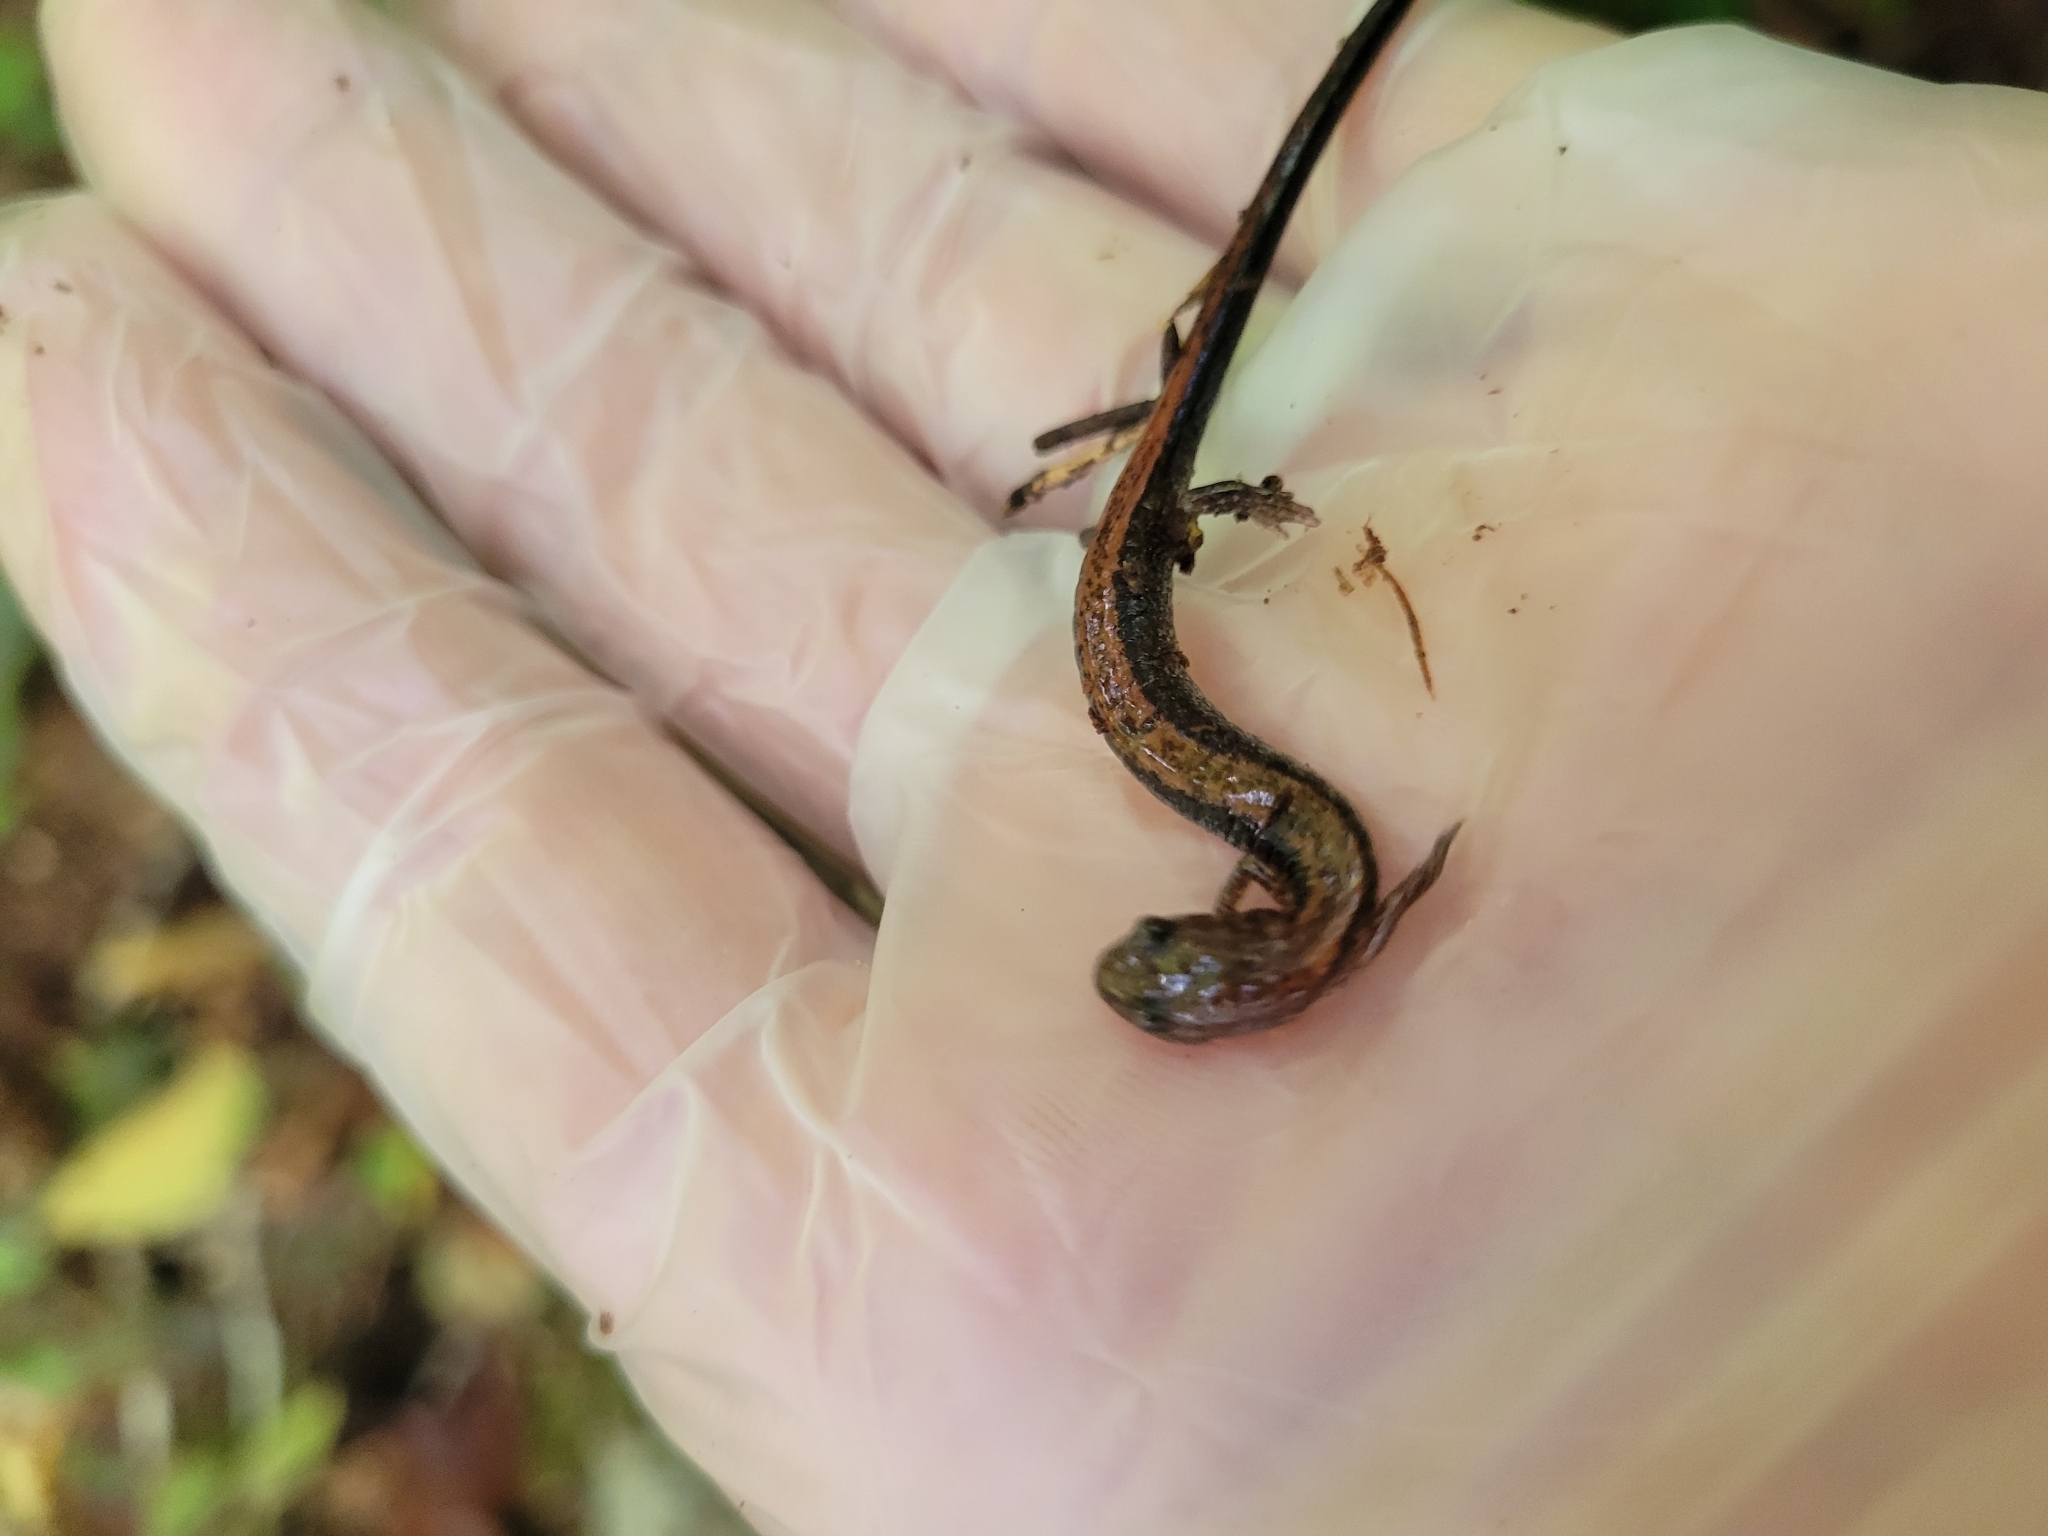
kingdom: Animalia
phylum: Chordata
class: Amphibia
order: Caudata
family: Plethodontidae
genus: Plethodon
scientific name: Plethodon cinereus
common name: Redback salamander
